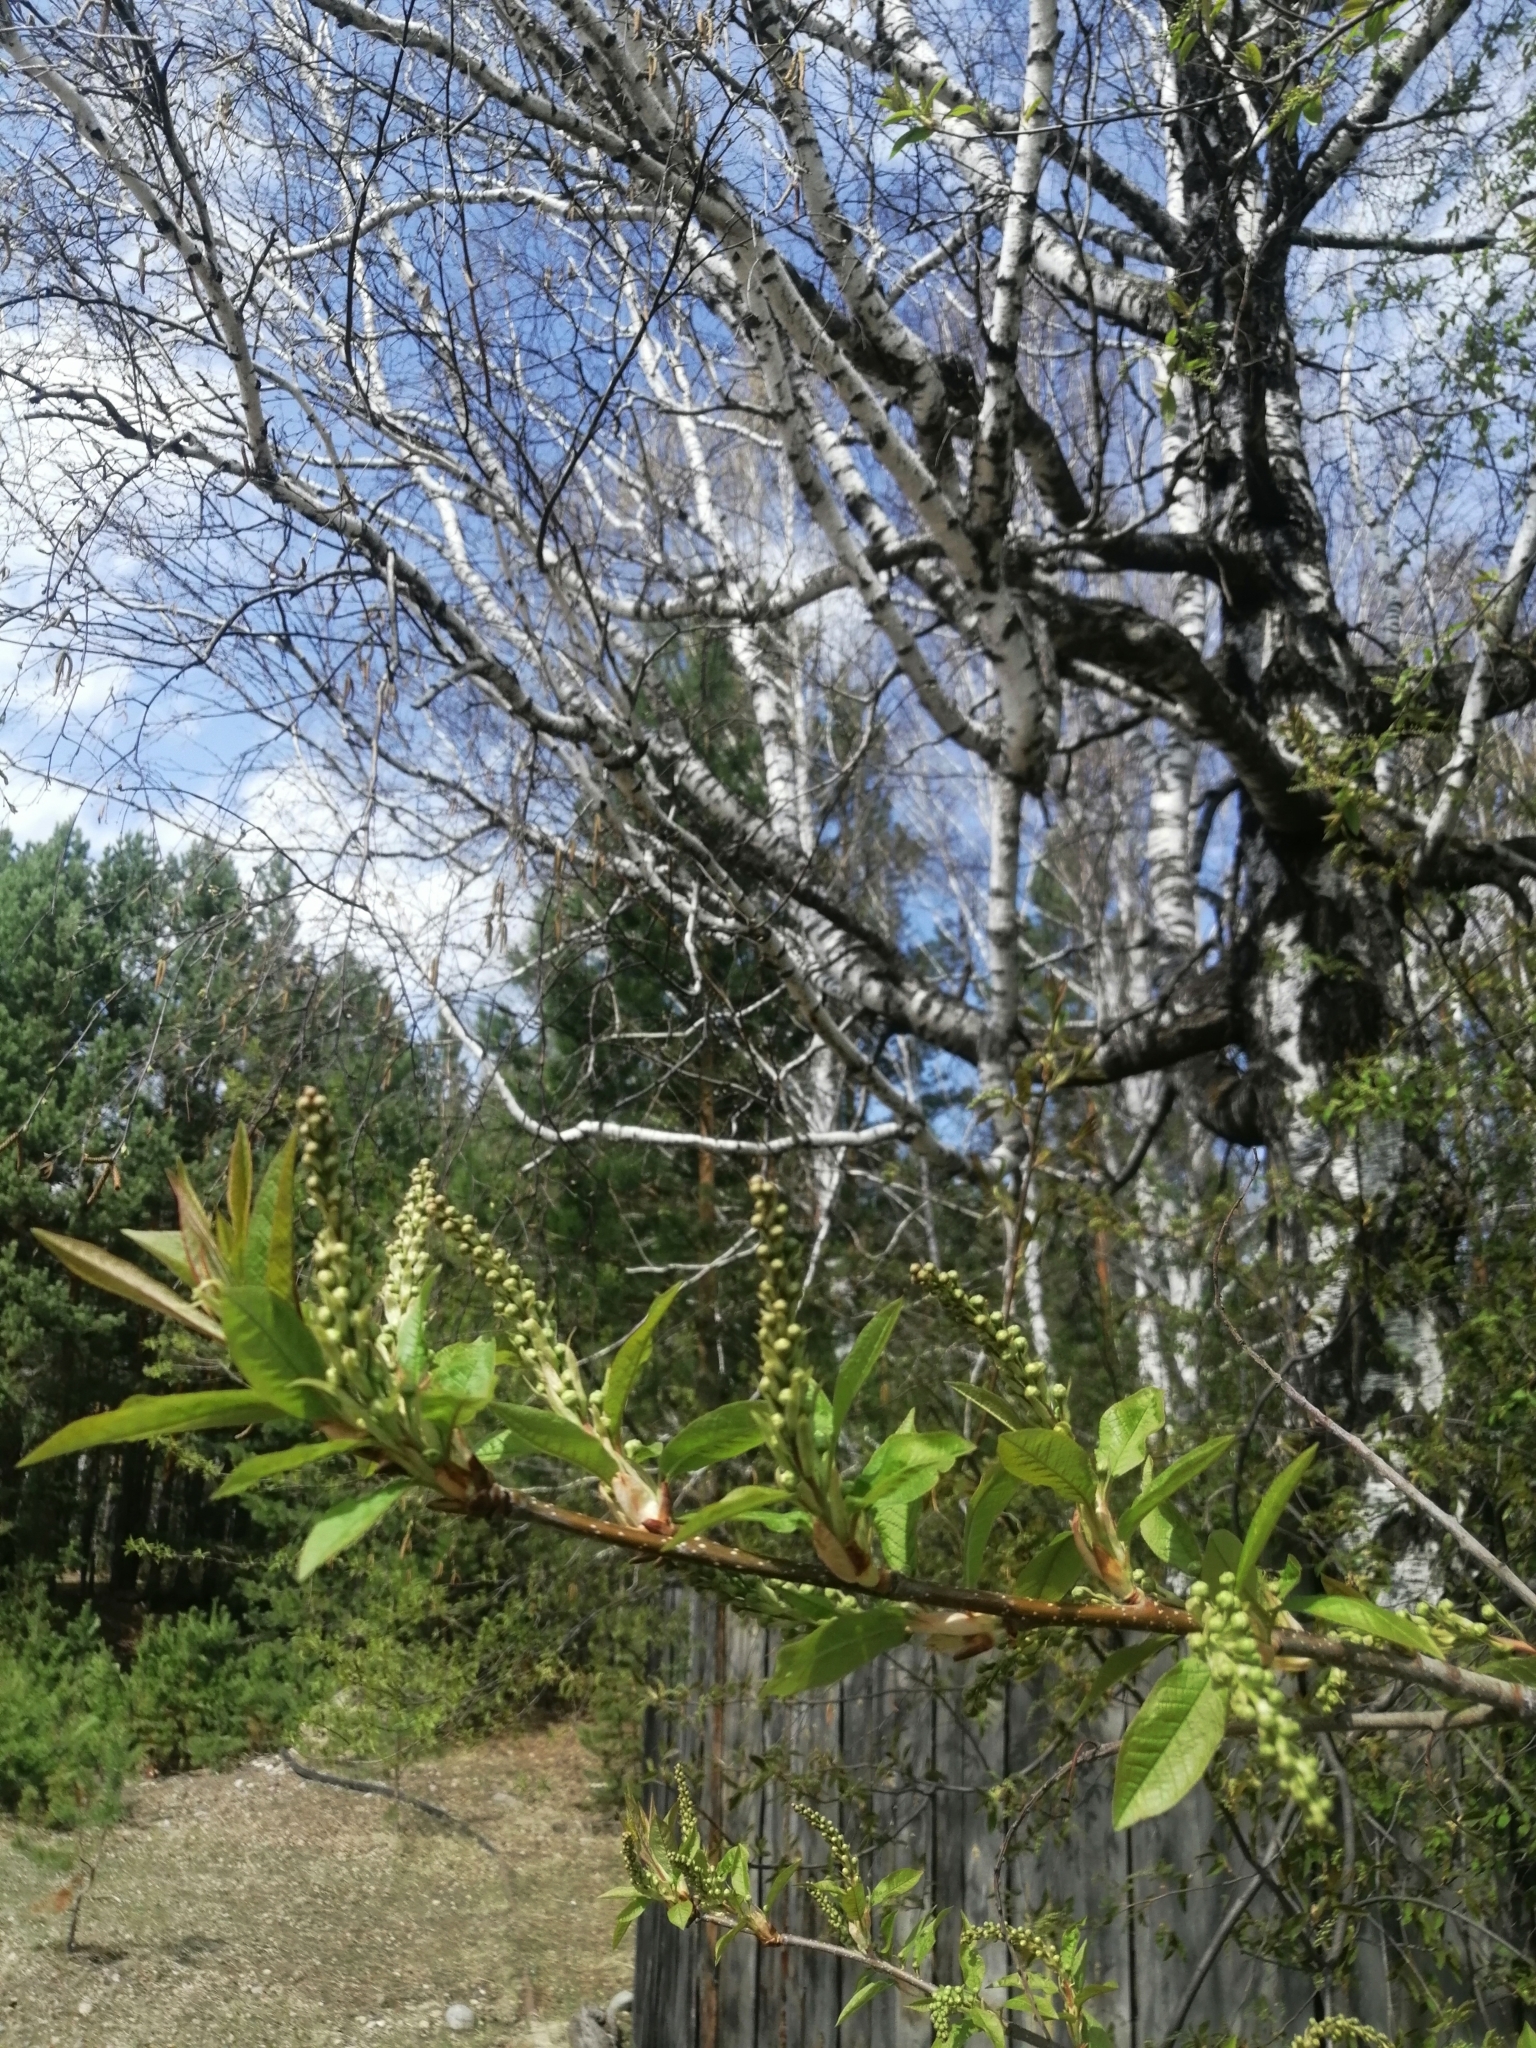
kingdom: Plantae
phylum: Tracheophyta
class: Magnoliopsida
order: Rosales
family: Rosaceae
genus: Prunus
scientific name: Prunus padus
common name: Bird cherry
